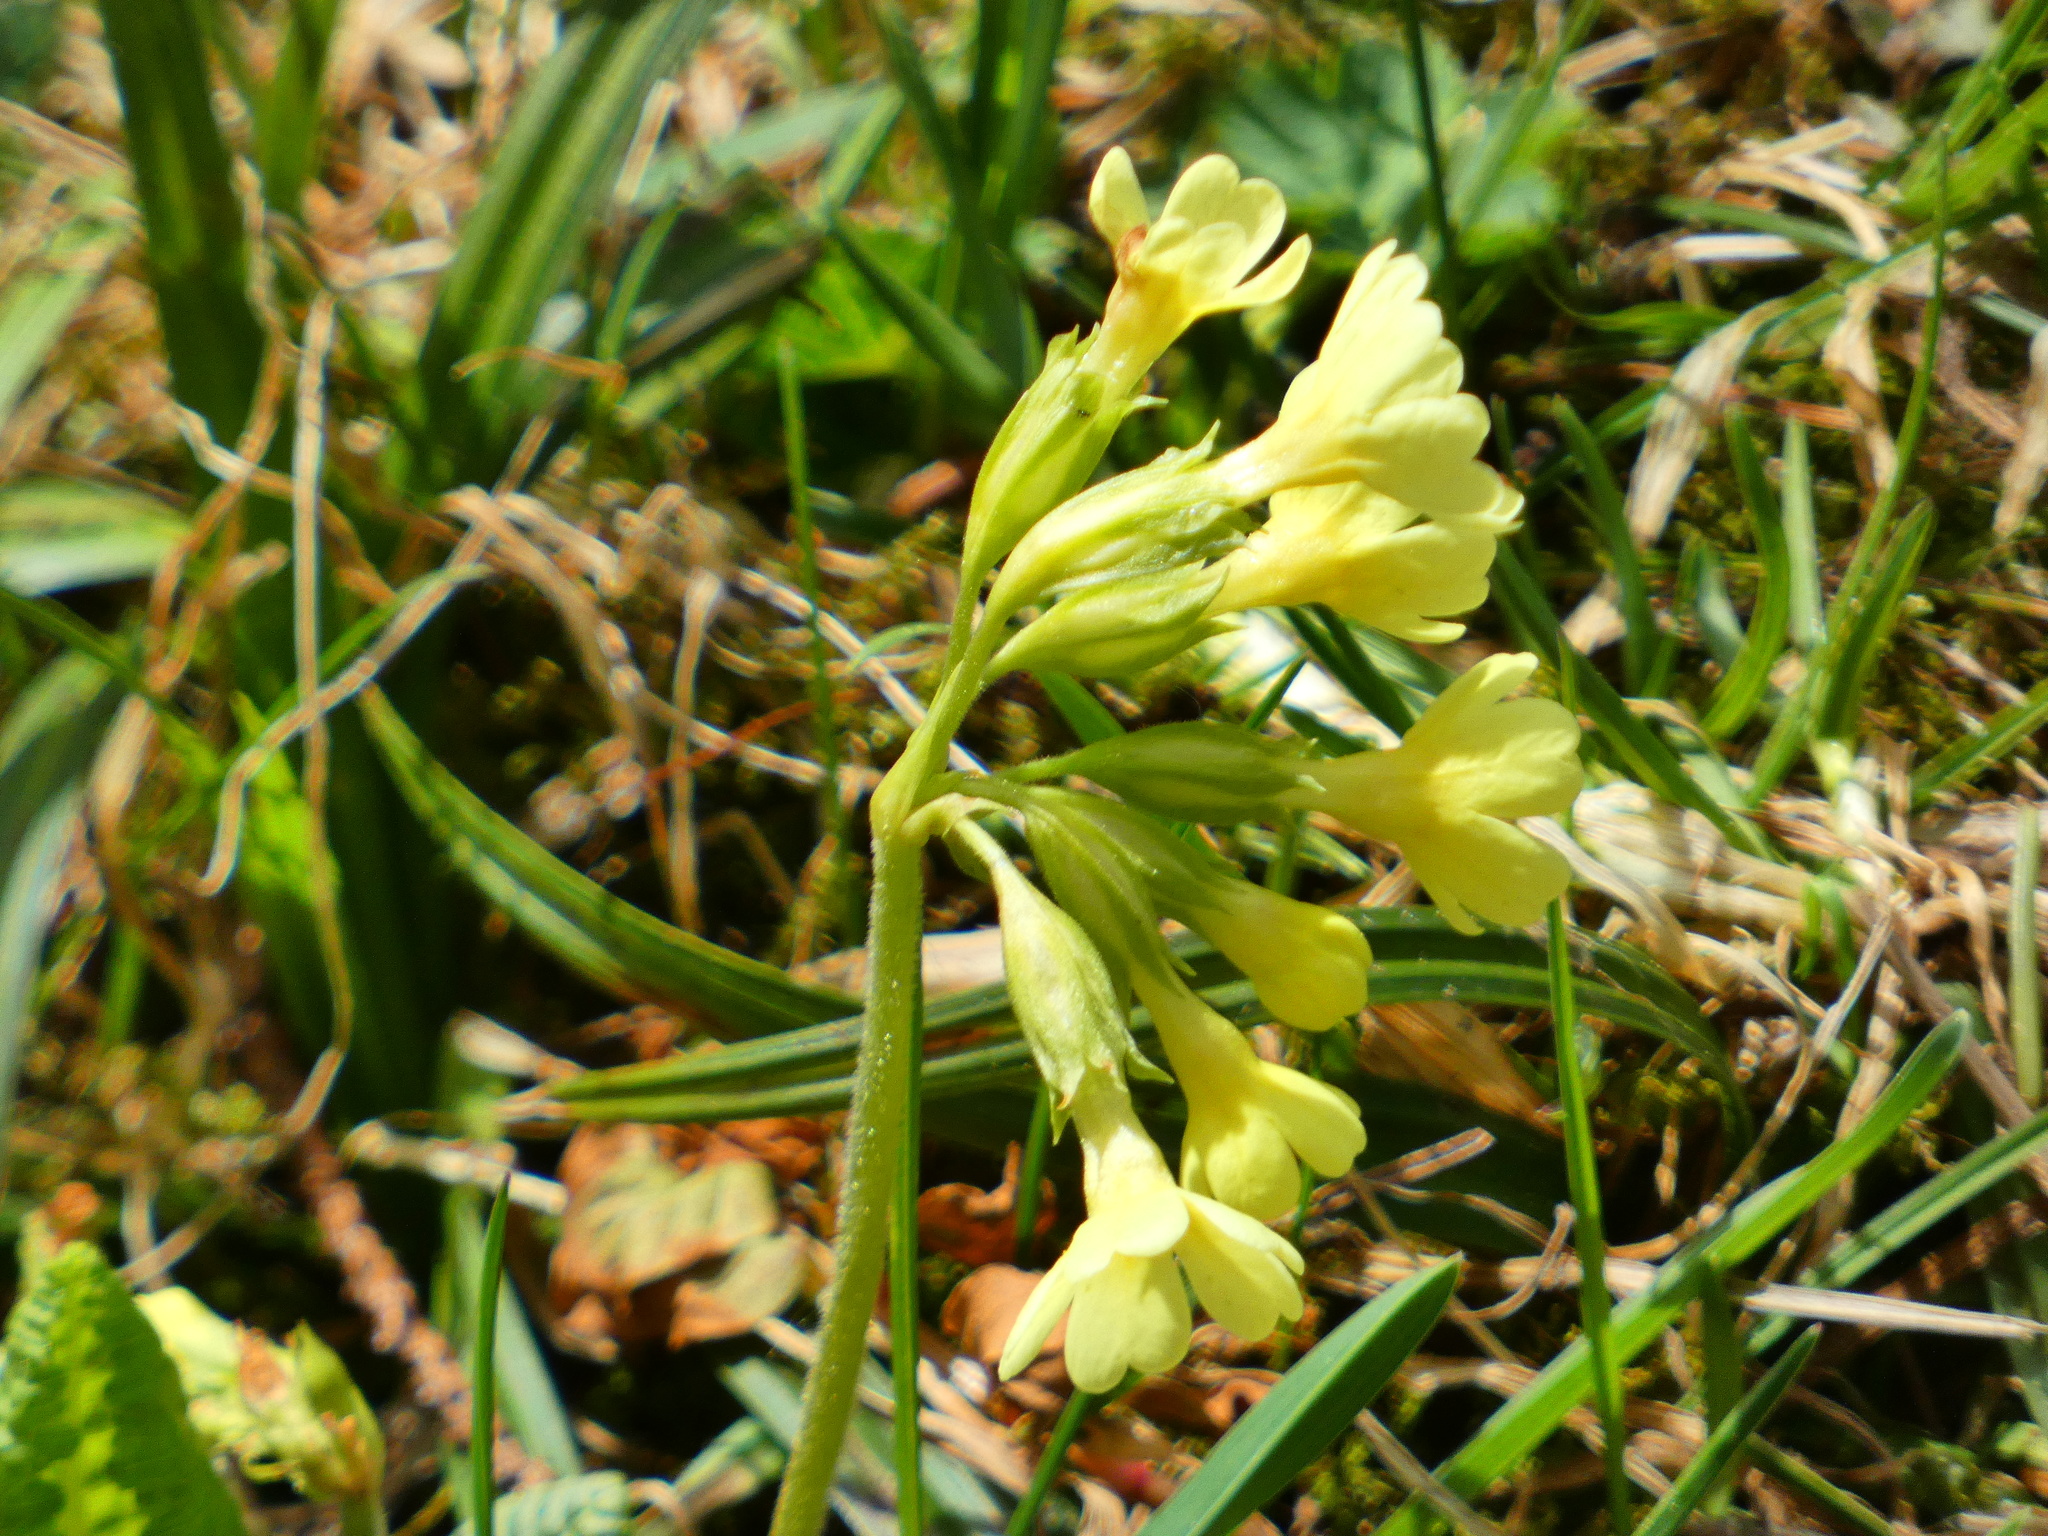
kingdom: Plantae
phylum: Tracheophyta
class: Magnoliopsida
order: Ericales
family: Primulaceae
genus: Primula
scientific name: Primula elatior
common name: Oxlip
